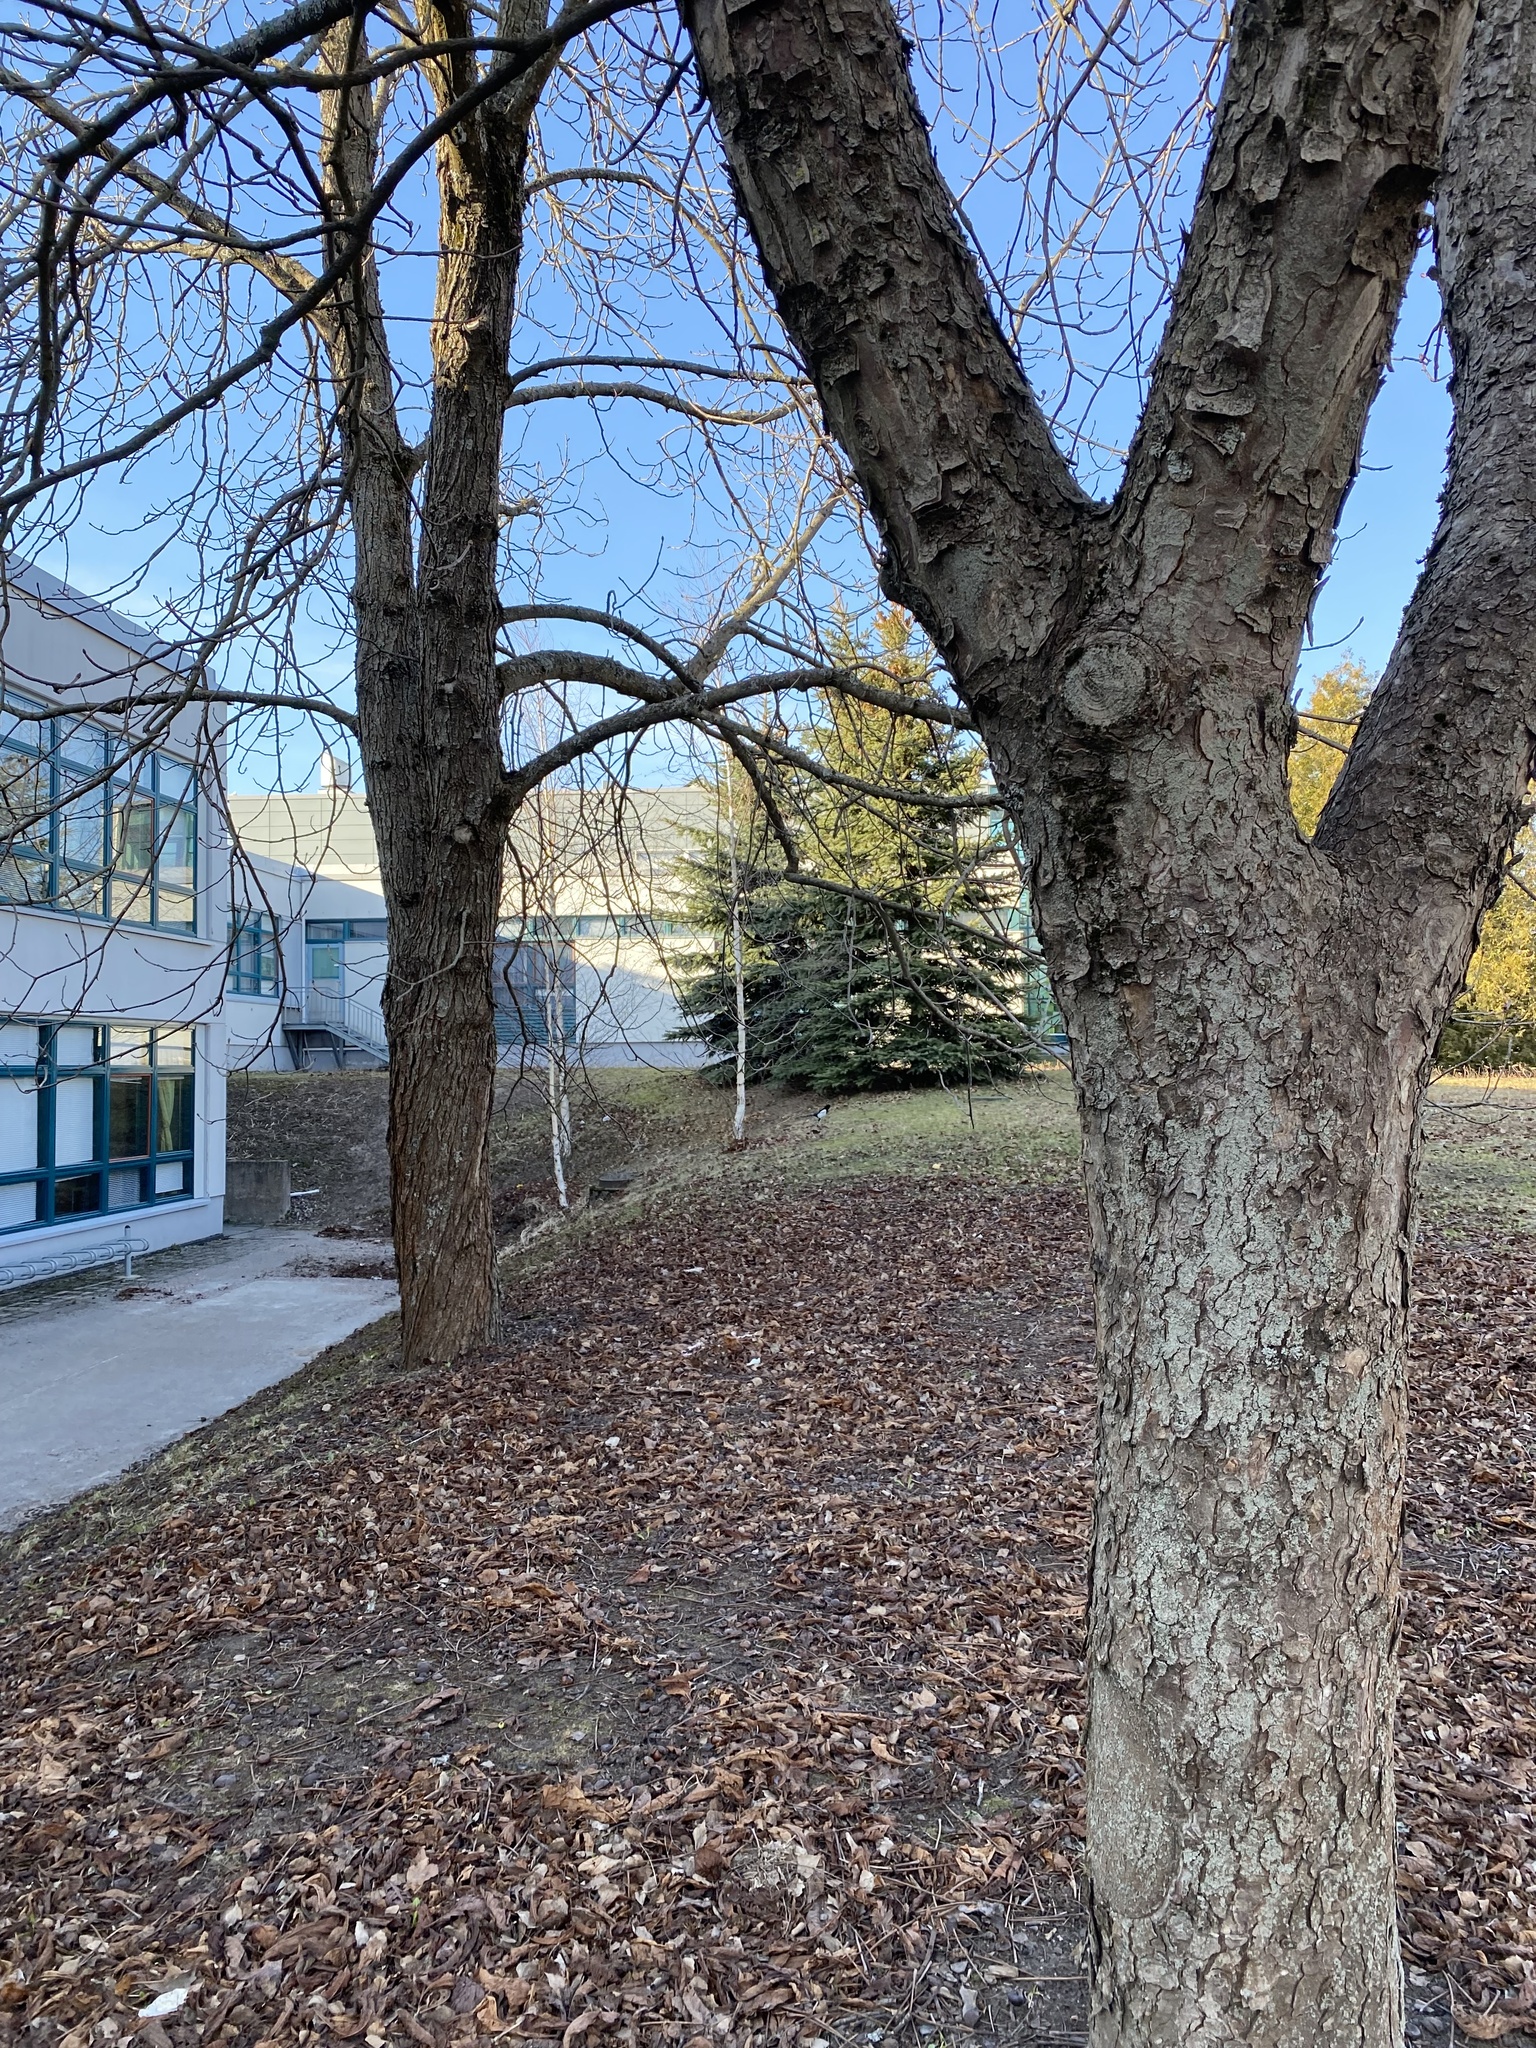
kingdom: Animalia
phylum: Chordata
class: Aves
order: Passeriformes
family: Corvidae
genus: Pica
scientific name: Pica pica
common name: Eurasian magpie
